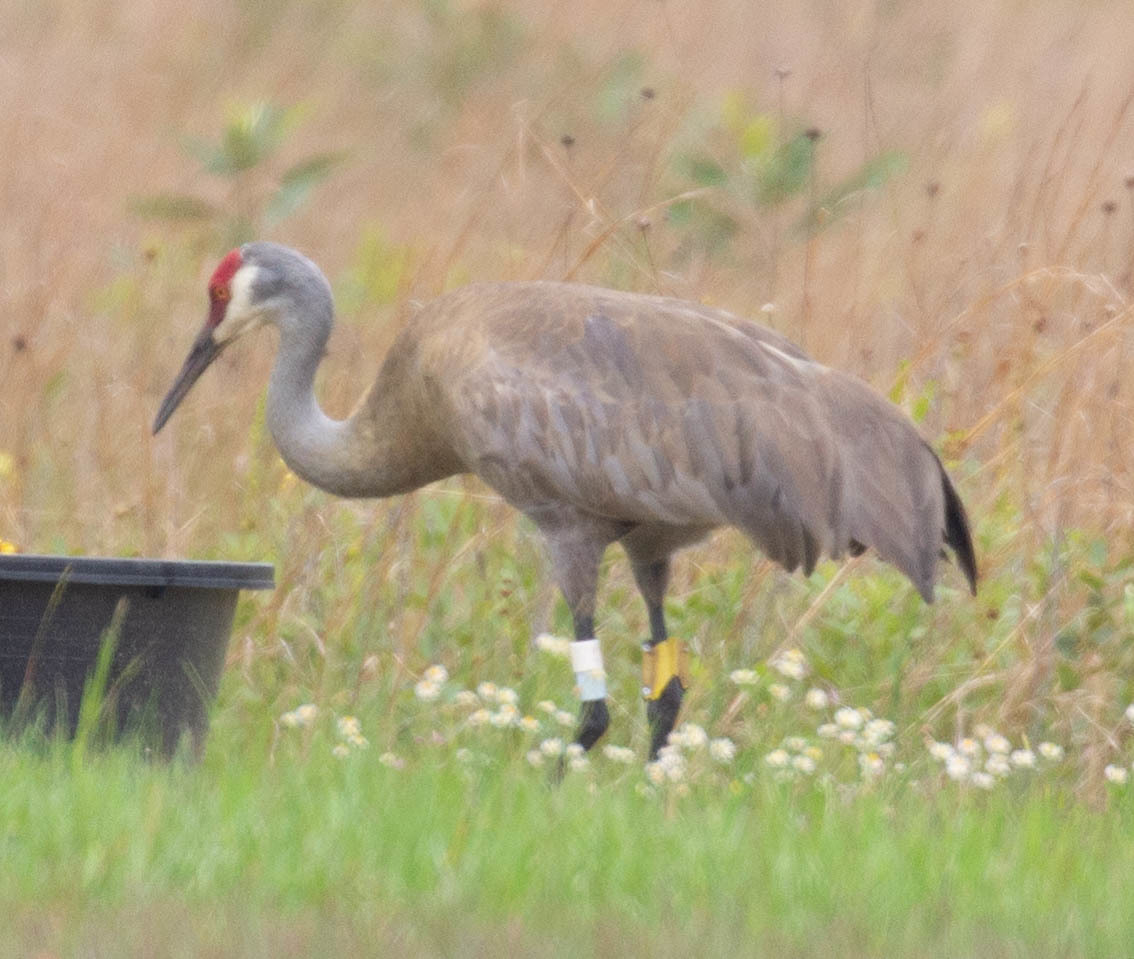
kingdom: Animalia
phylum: Chordata
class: Aves
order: Gruiformes
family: Gruidae
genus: Grus
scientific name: Grus canadensis
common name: Sandhill crane
